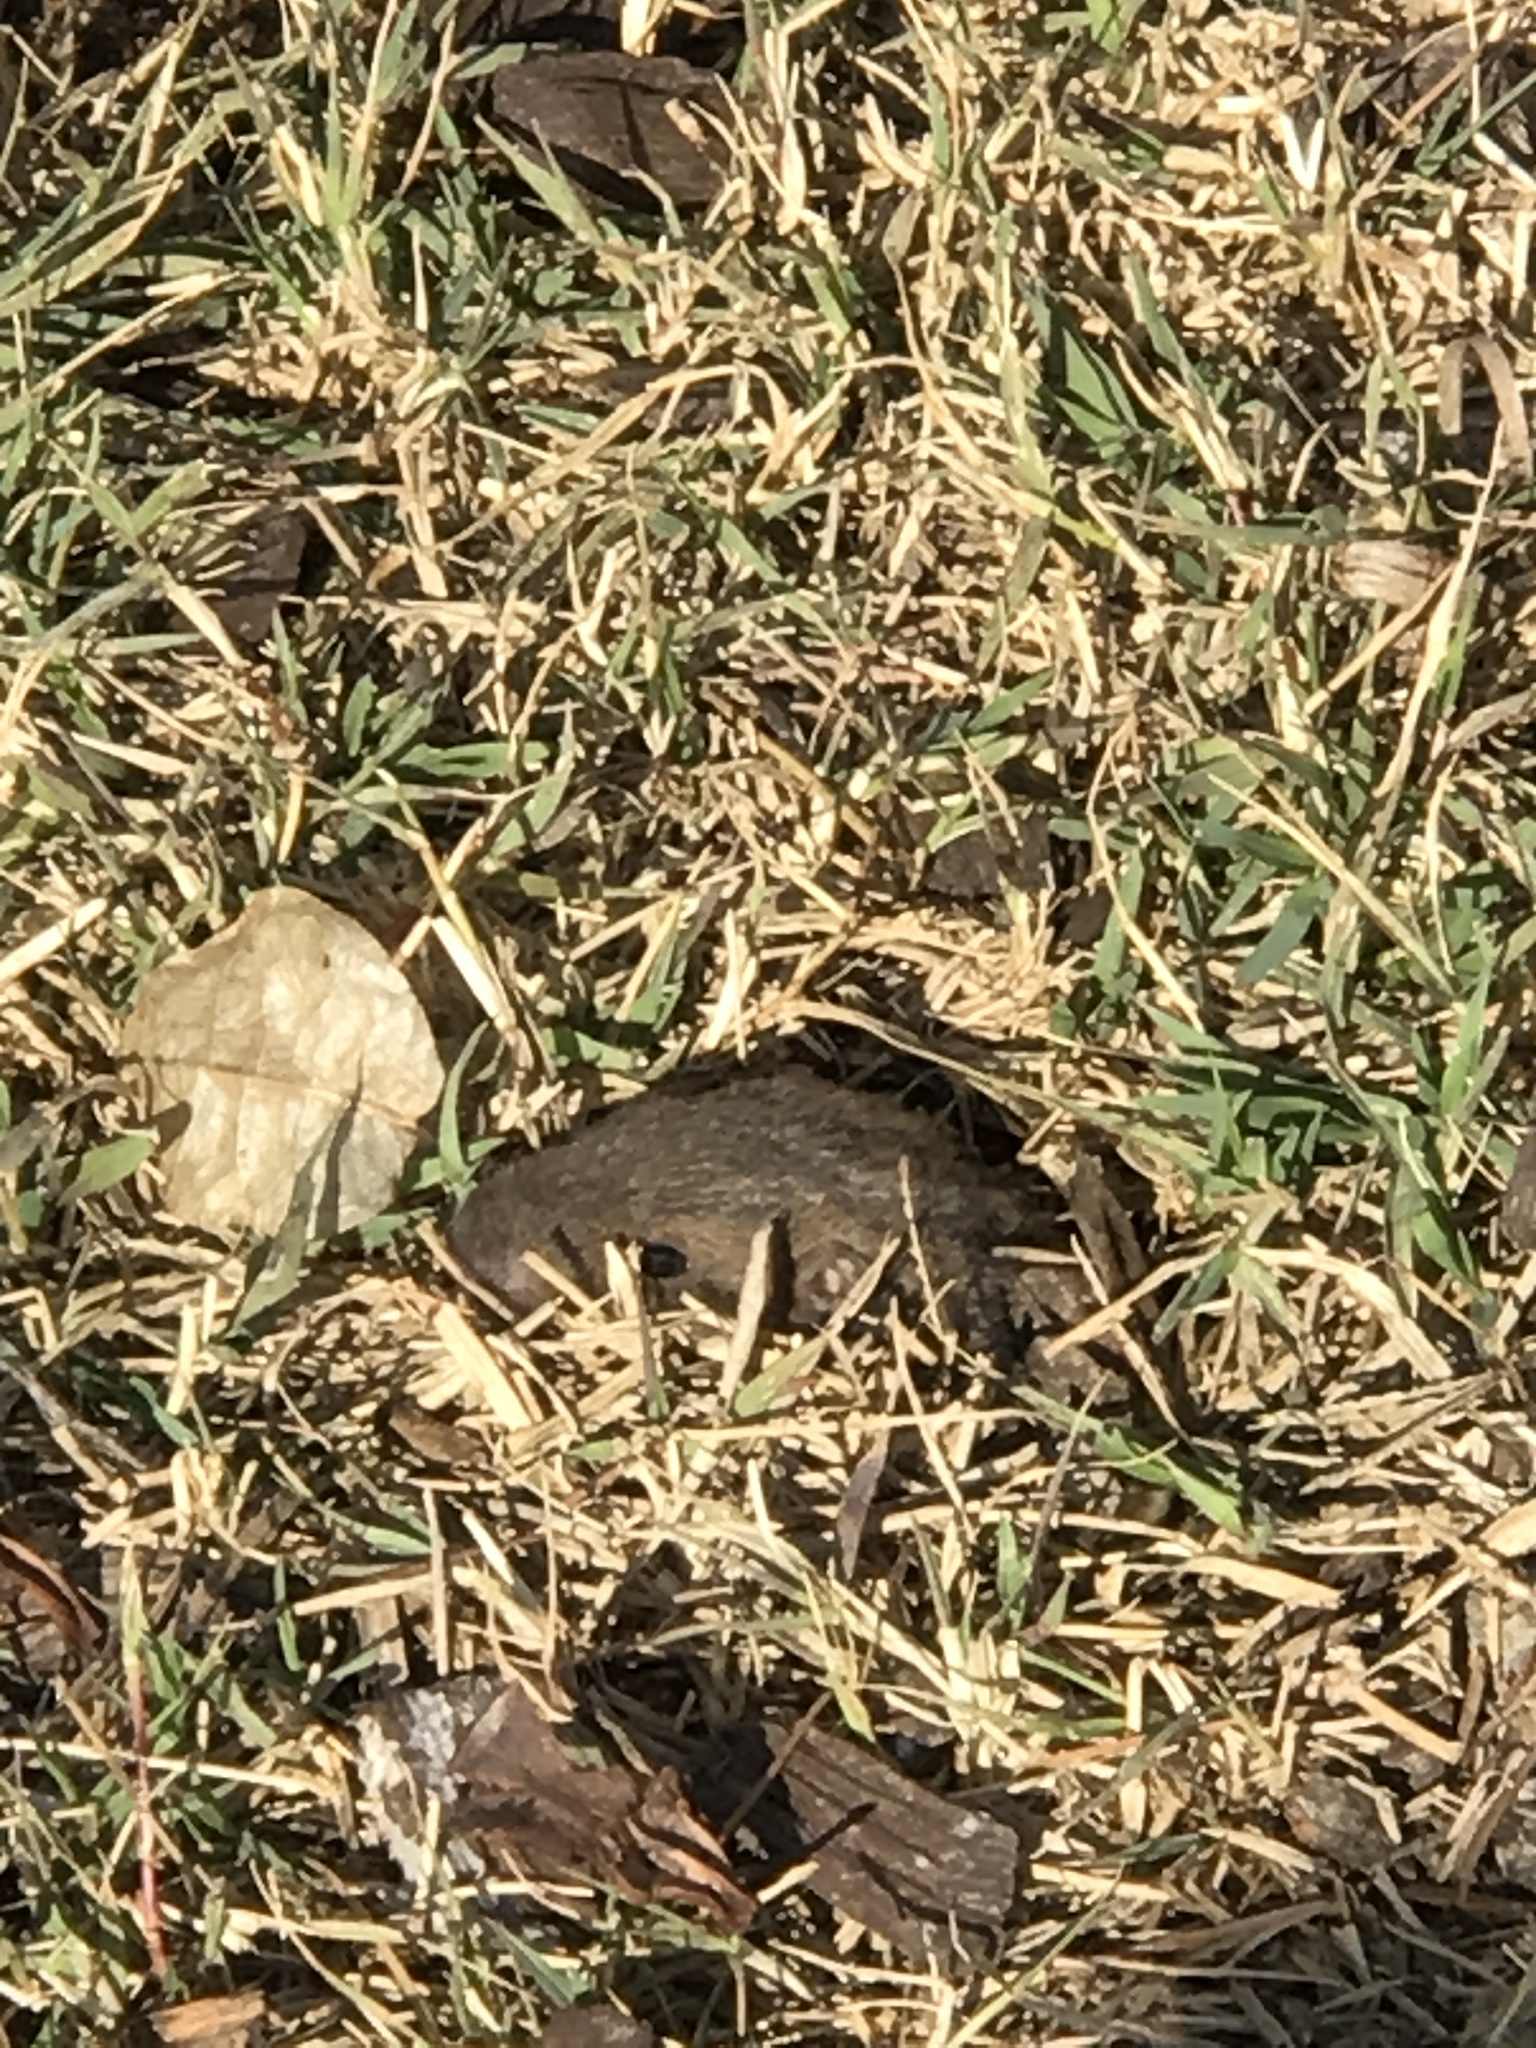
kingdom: Animalia
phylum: Chordata
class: Mammalia
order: Rodentia
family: Geomyidae
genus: Thomomys
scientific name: Thomomys bottae
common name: Botta's pocket gopher
